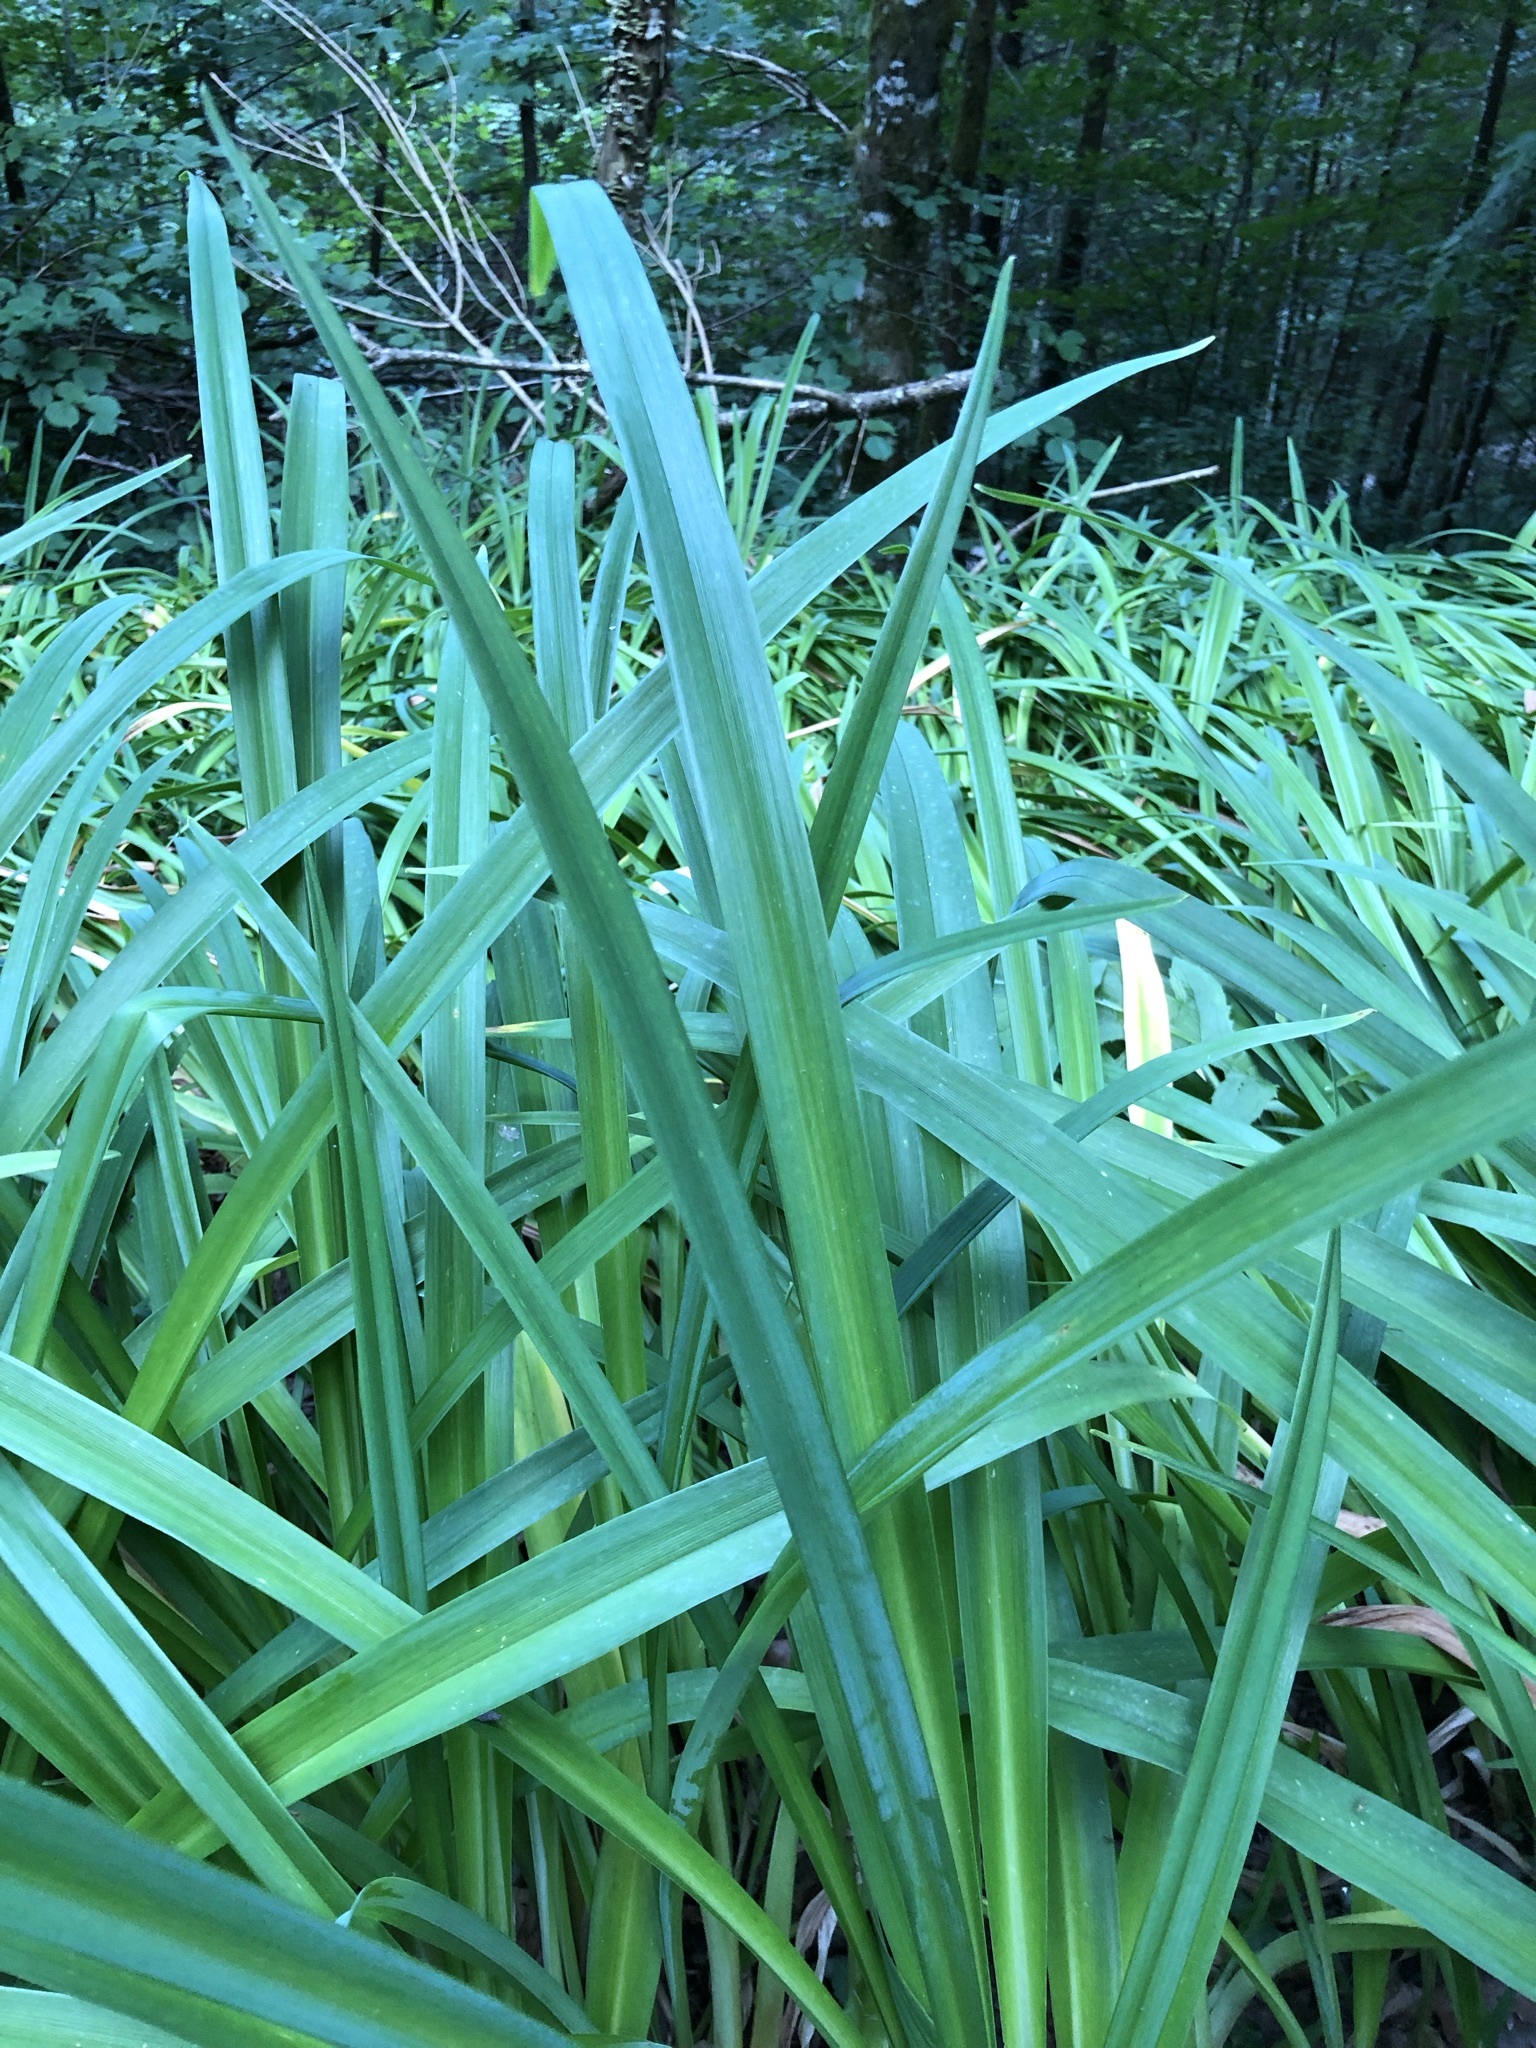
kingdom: Plantae
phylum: Tracheophyta
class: Liliopsida
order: Asparagales
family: Asphodelaceae
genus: Hemerocallis
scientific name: Hemerocallis fulva
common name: Orange day-lily
